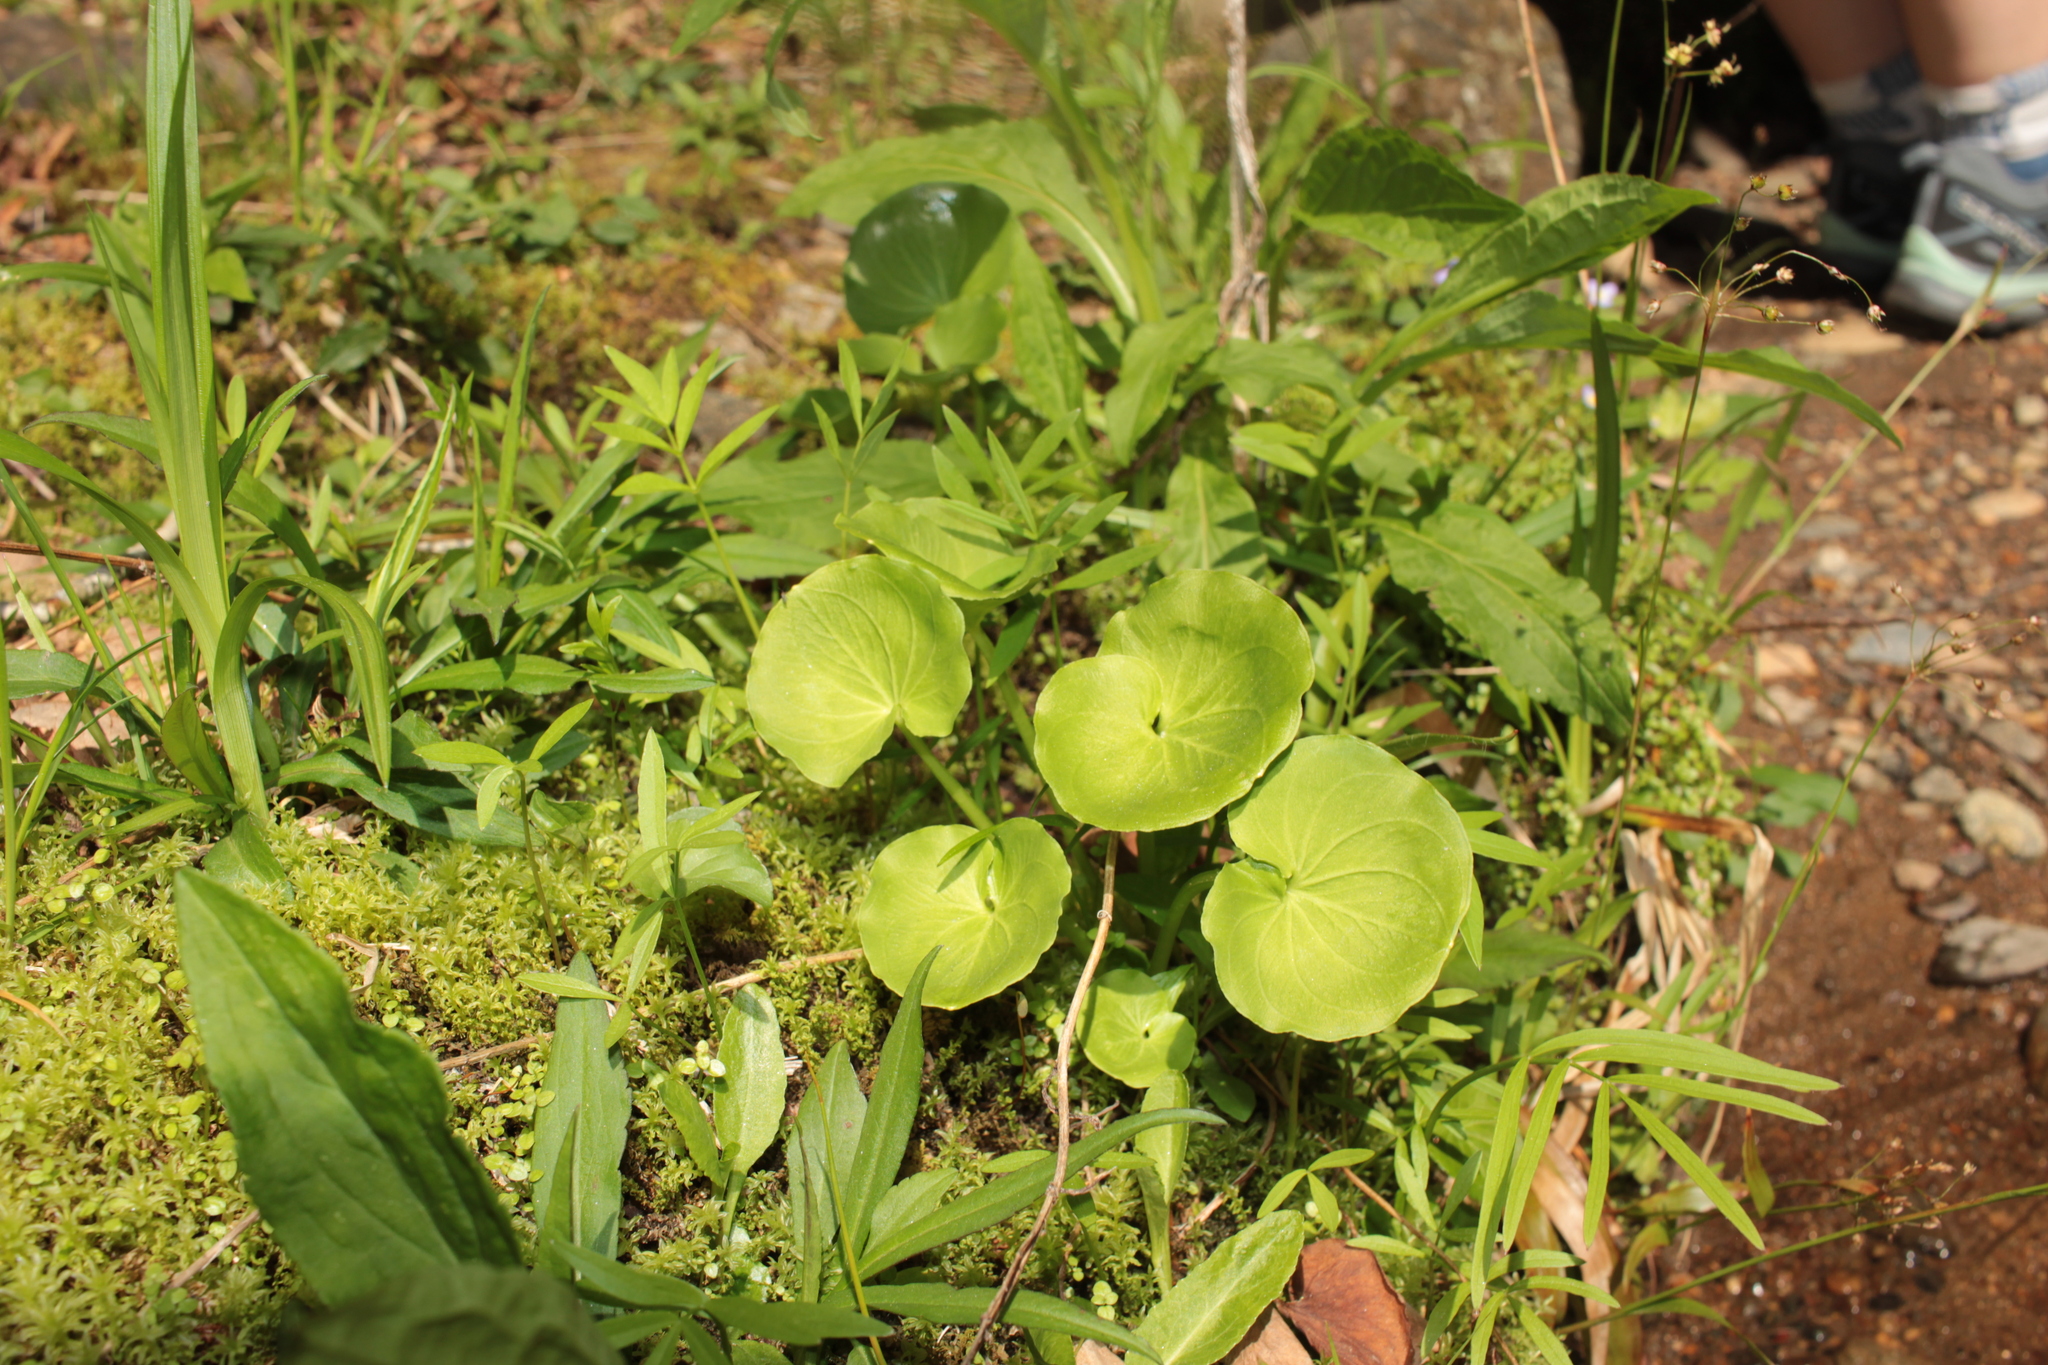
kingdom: Plantae
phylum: Tracheophyta
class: Magnoliopsida
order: Celastrales
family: Parnassiaceae
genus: Parnassia
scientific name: Parnassia asarifolia
